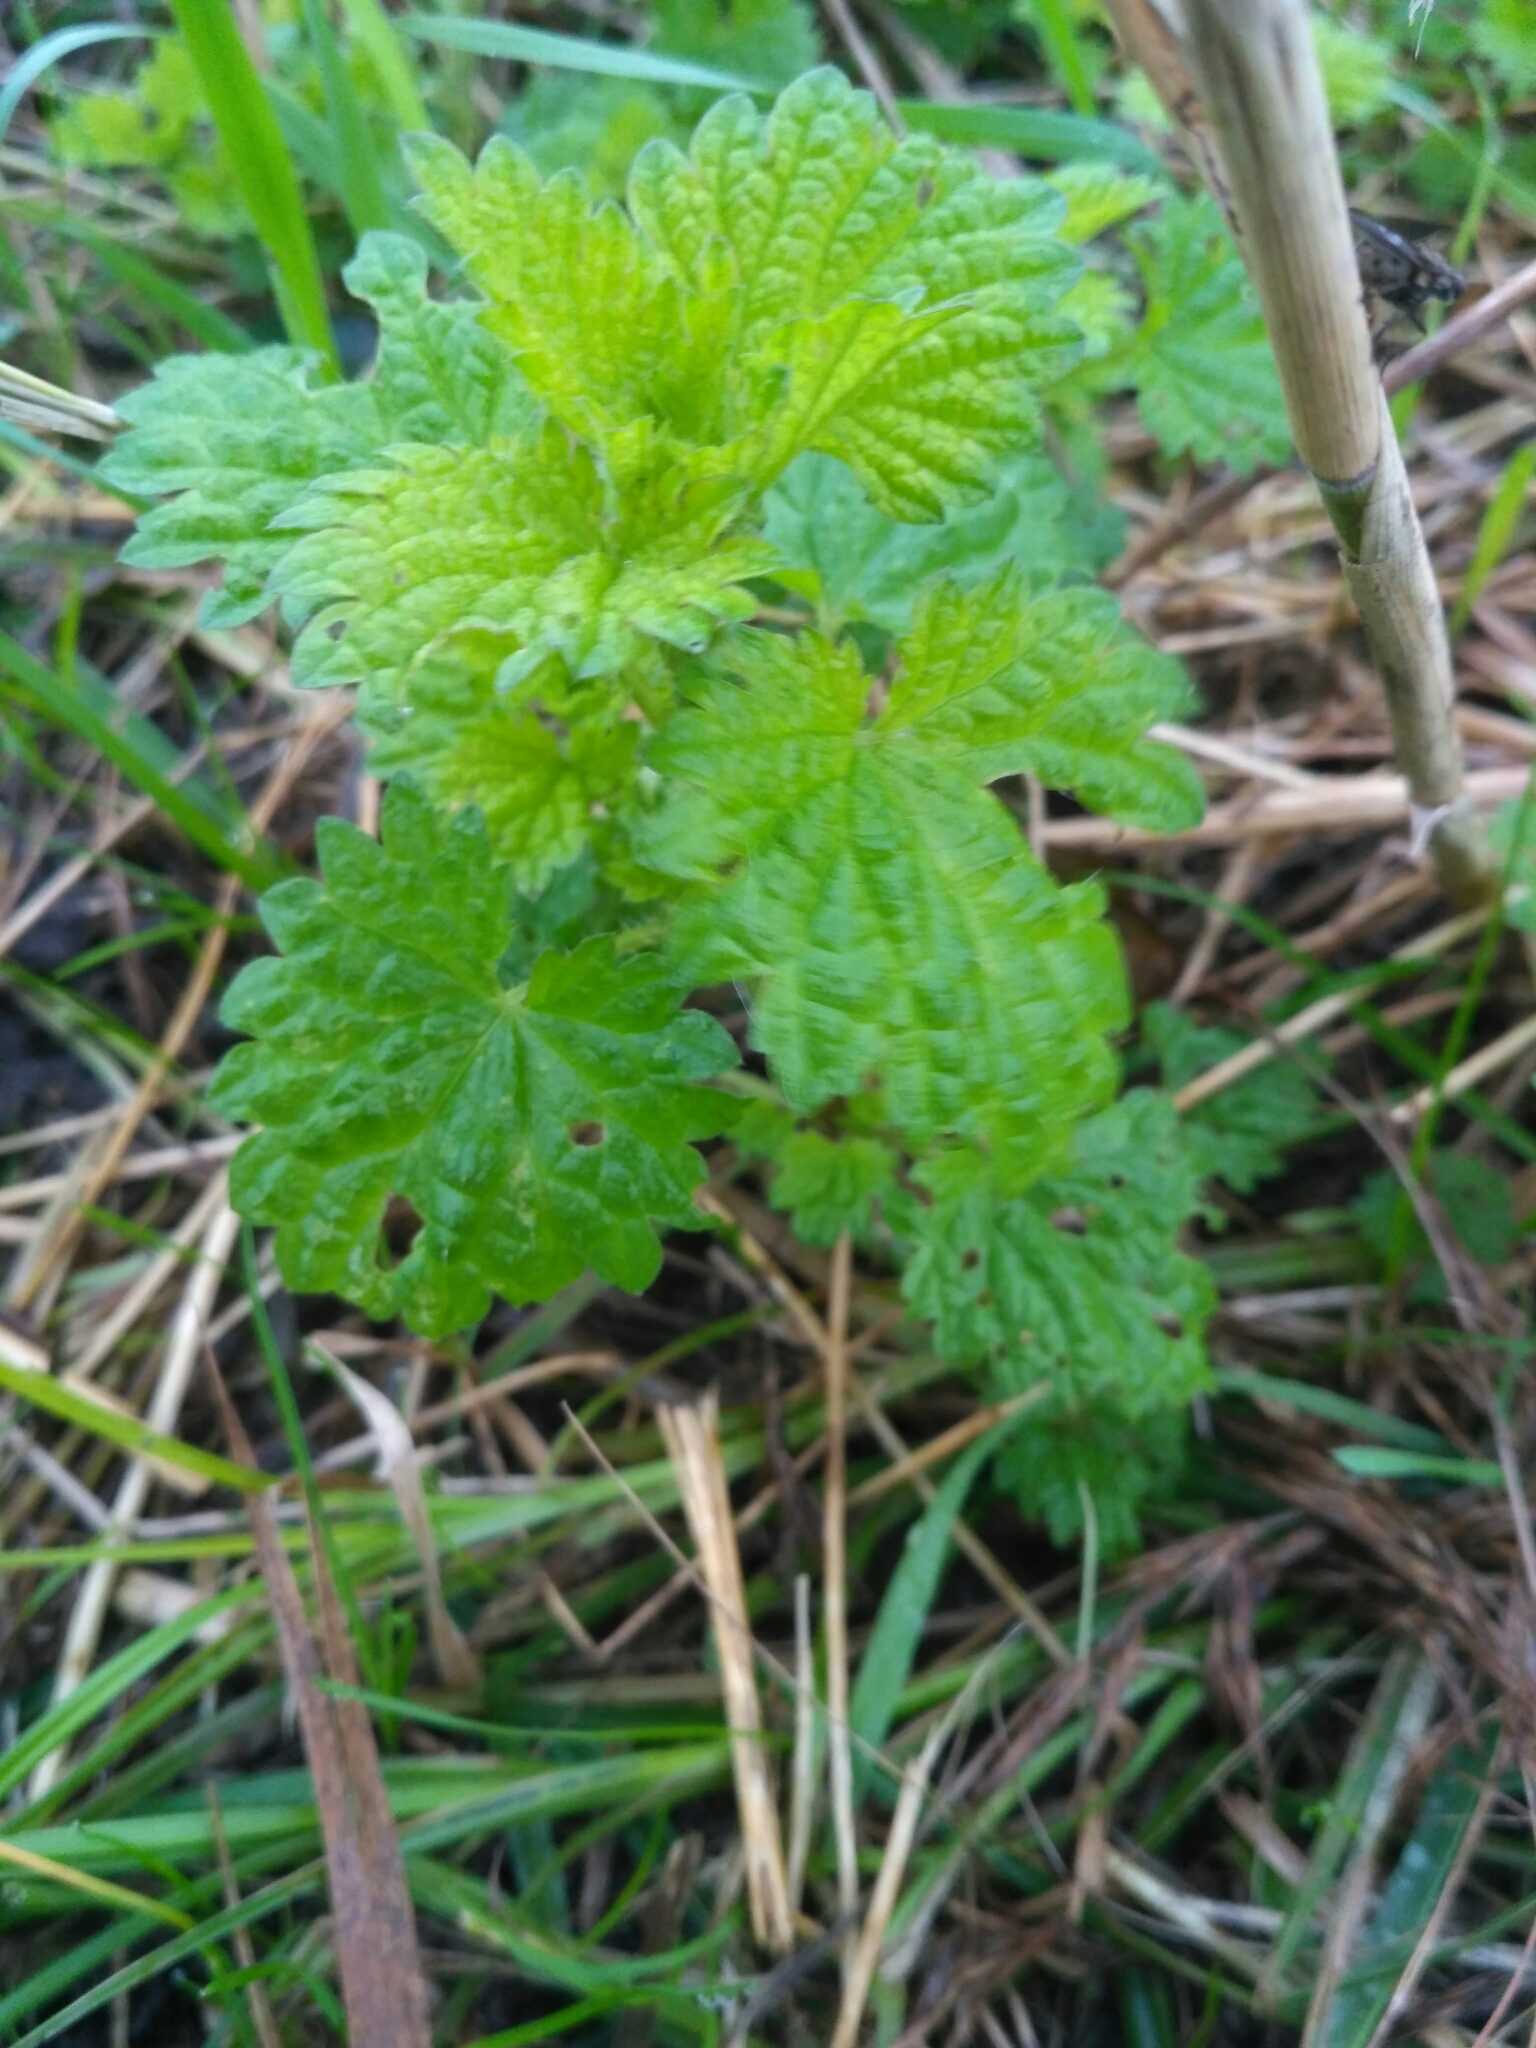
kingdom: Plantae
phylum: Tracheophyta
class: Magnoliopsida
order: Rosales
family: Urticaceae
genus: Urtica
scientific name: Urtica dioica
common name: Common nettle
